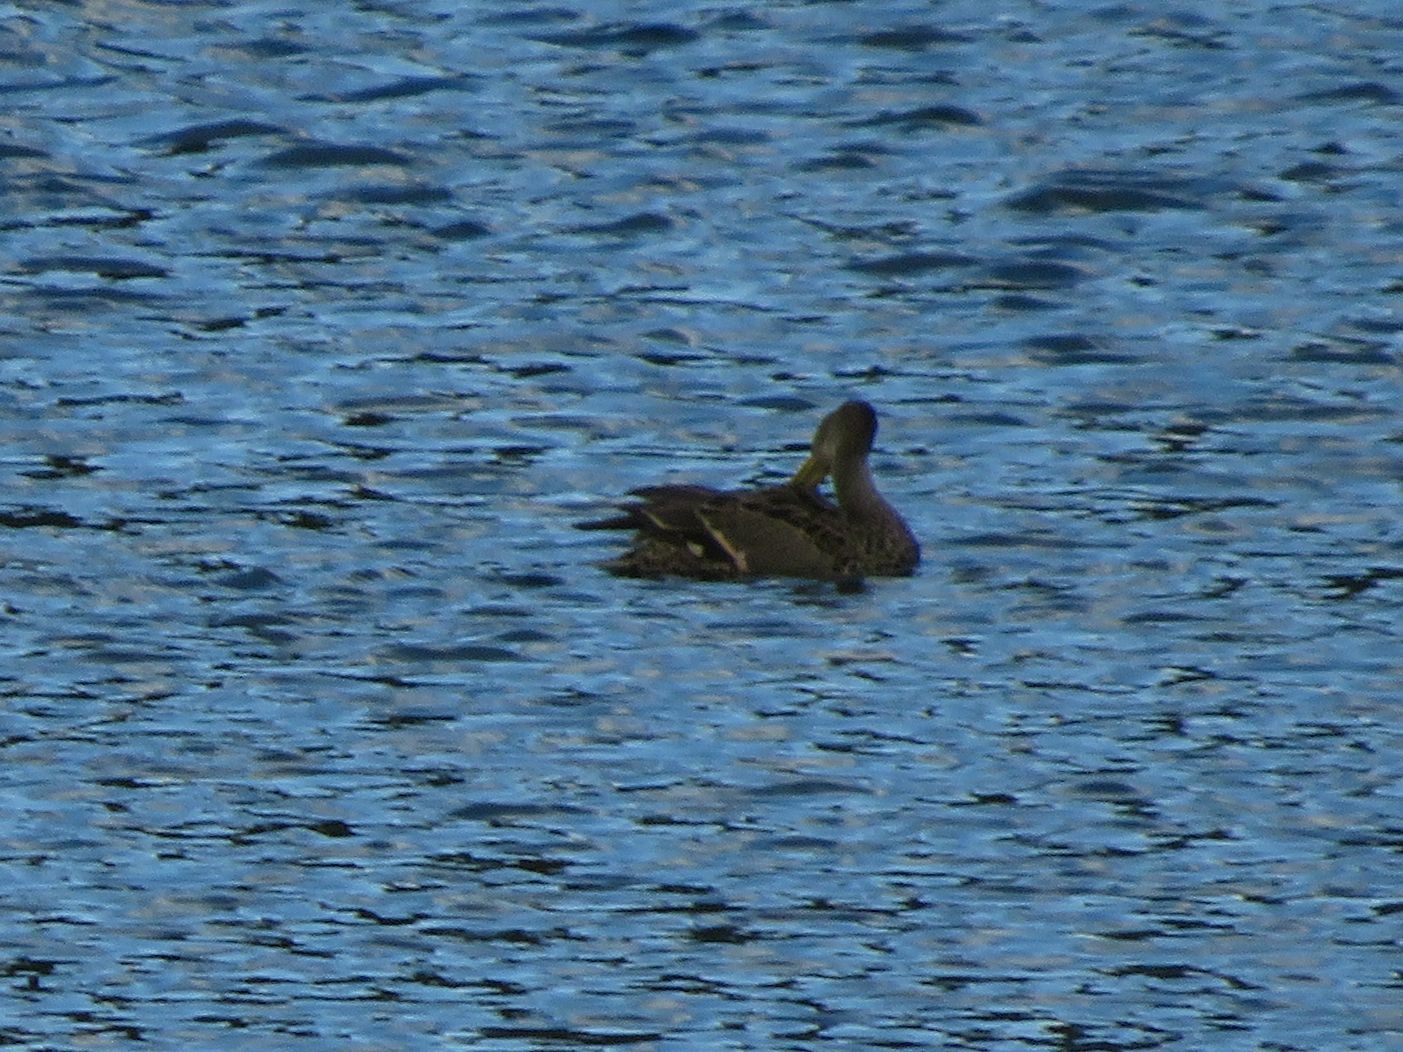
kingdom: Animalia
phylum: Chordata
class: Aves
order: Anseriformes
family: Anatidae
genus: Anas
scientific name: Anas georgica
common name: Yellow-billed pintail
